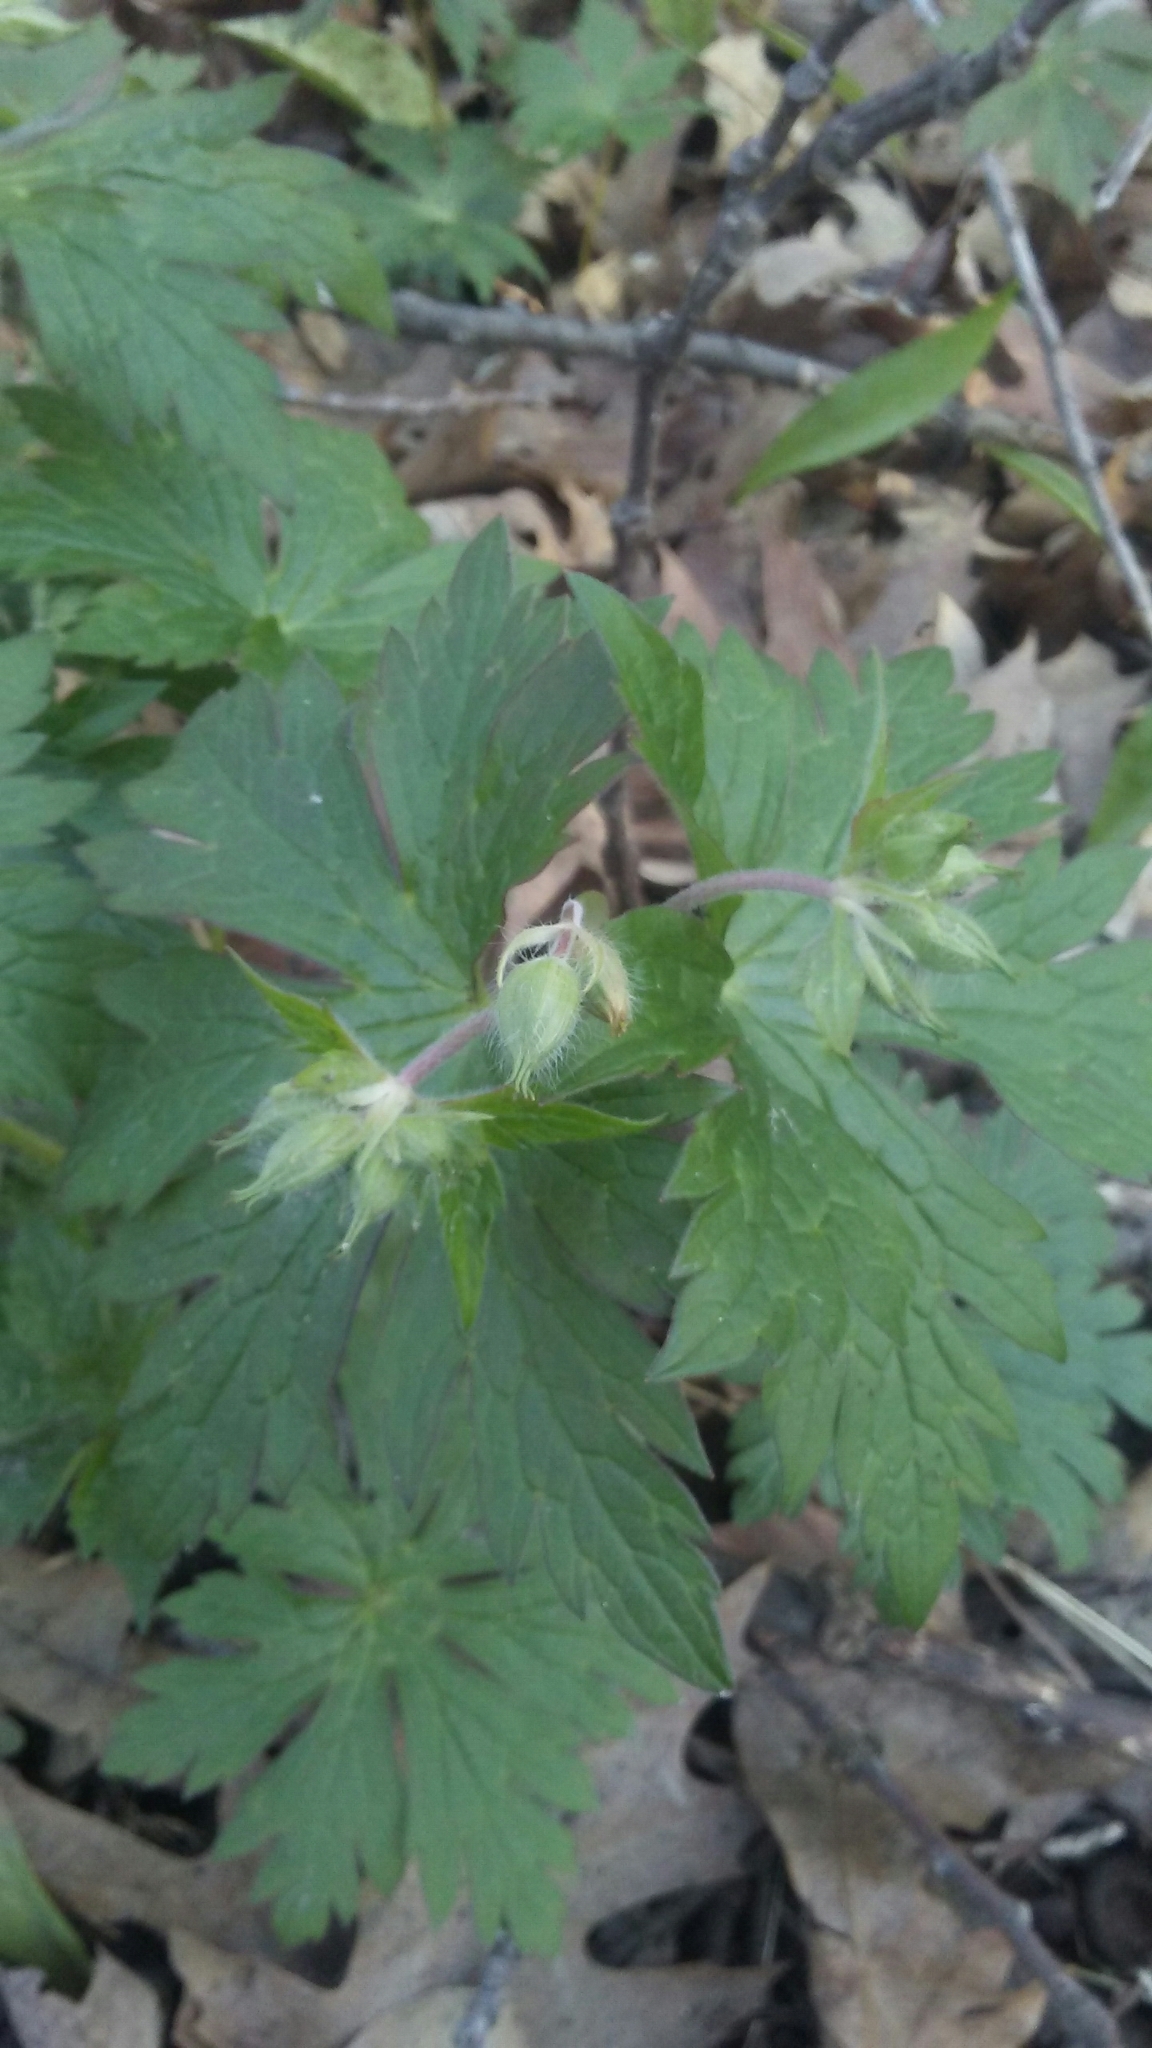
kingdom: Plantae
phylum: Tracheophyta
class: Magnoliopsida
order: Geraniales
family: Geraniaceae
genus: Geranium
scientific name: Geranium maculatum
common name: Spotted geranium
